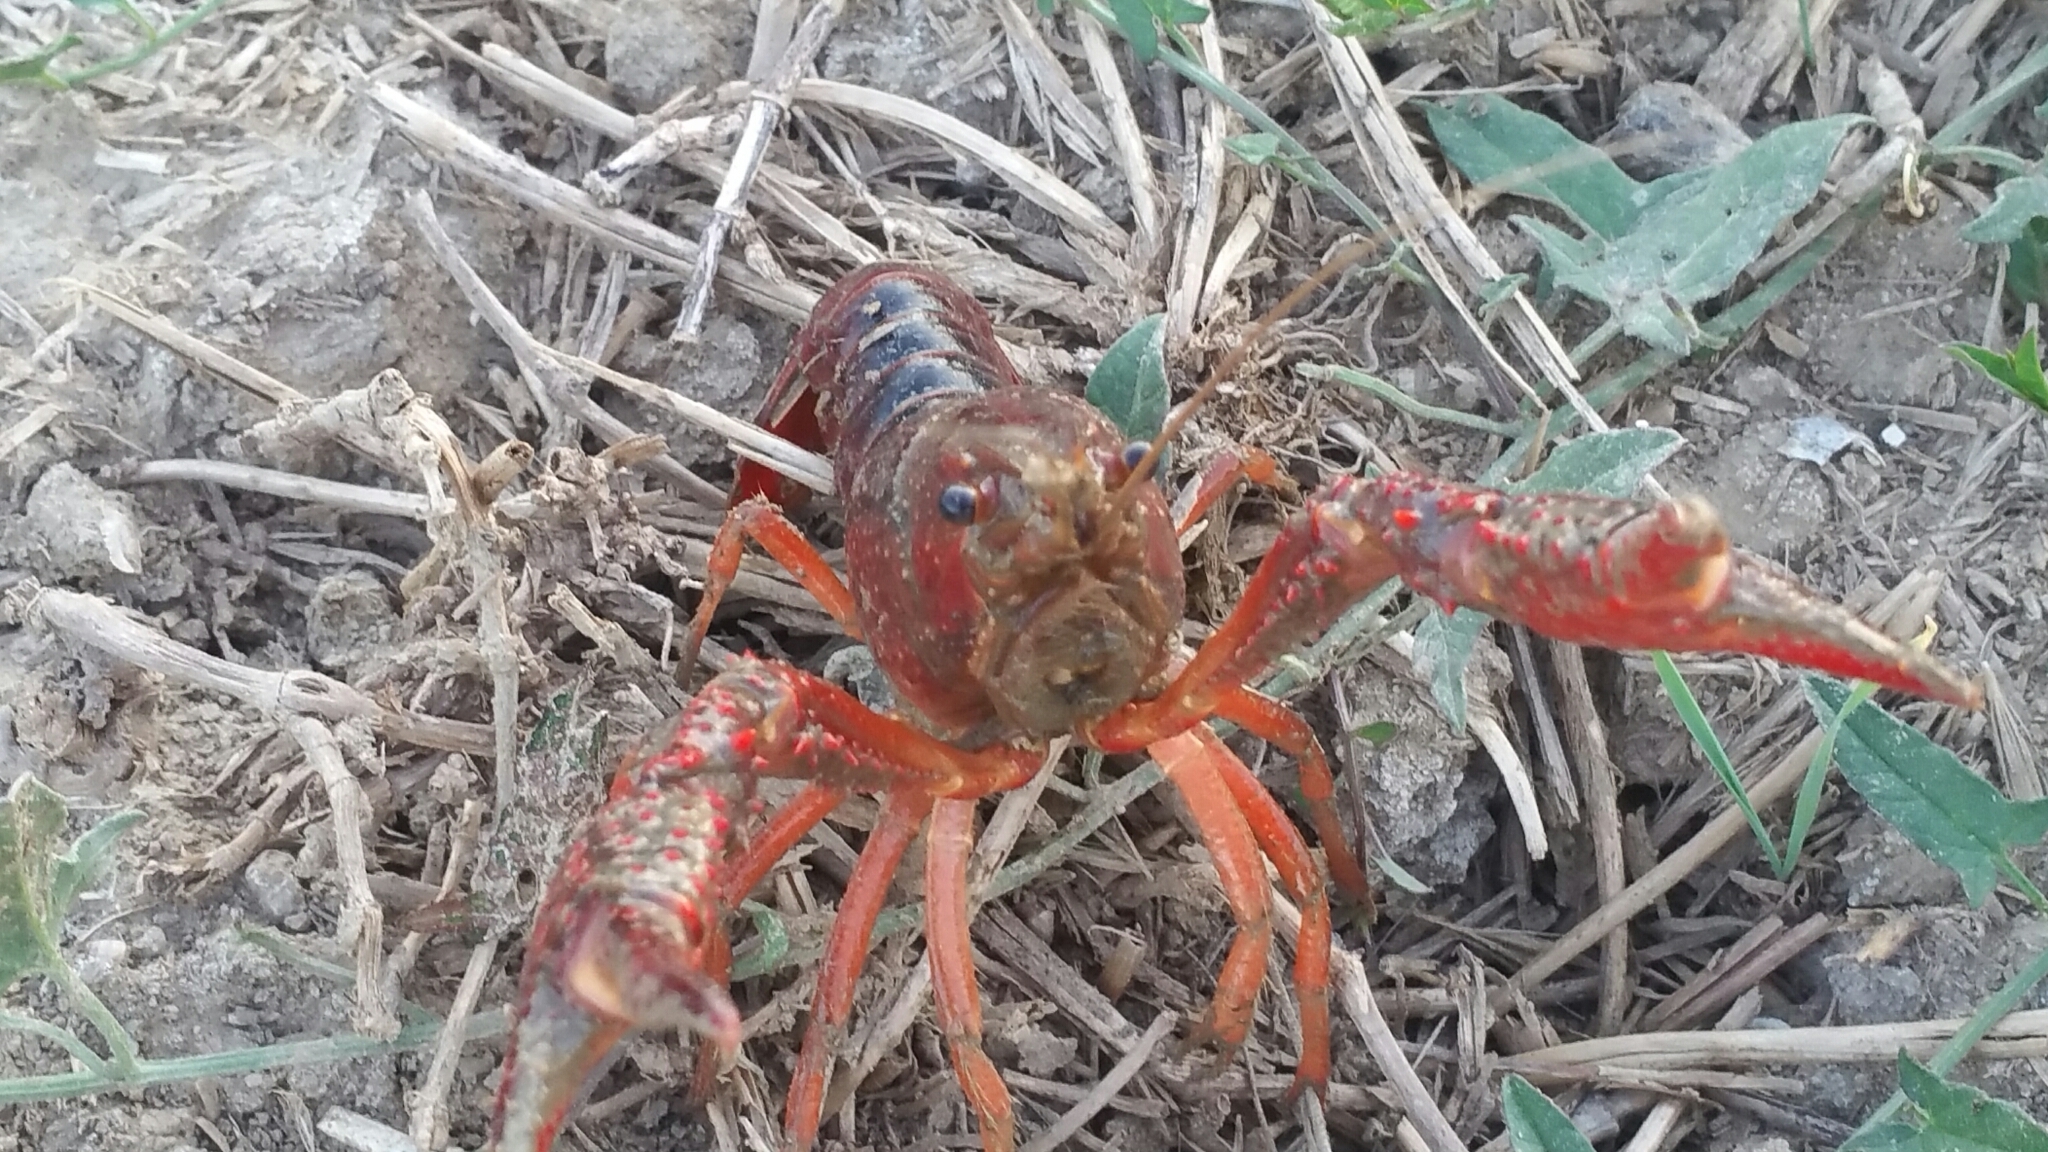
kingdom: Animalia
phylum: Arthropoda
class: Malacostraca
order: Decapoda
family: Cambaridae
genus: Procambarus
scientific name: Procambarus clarkii
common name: Red swamp crayfish
